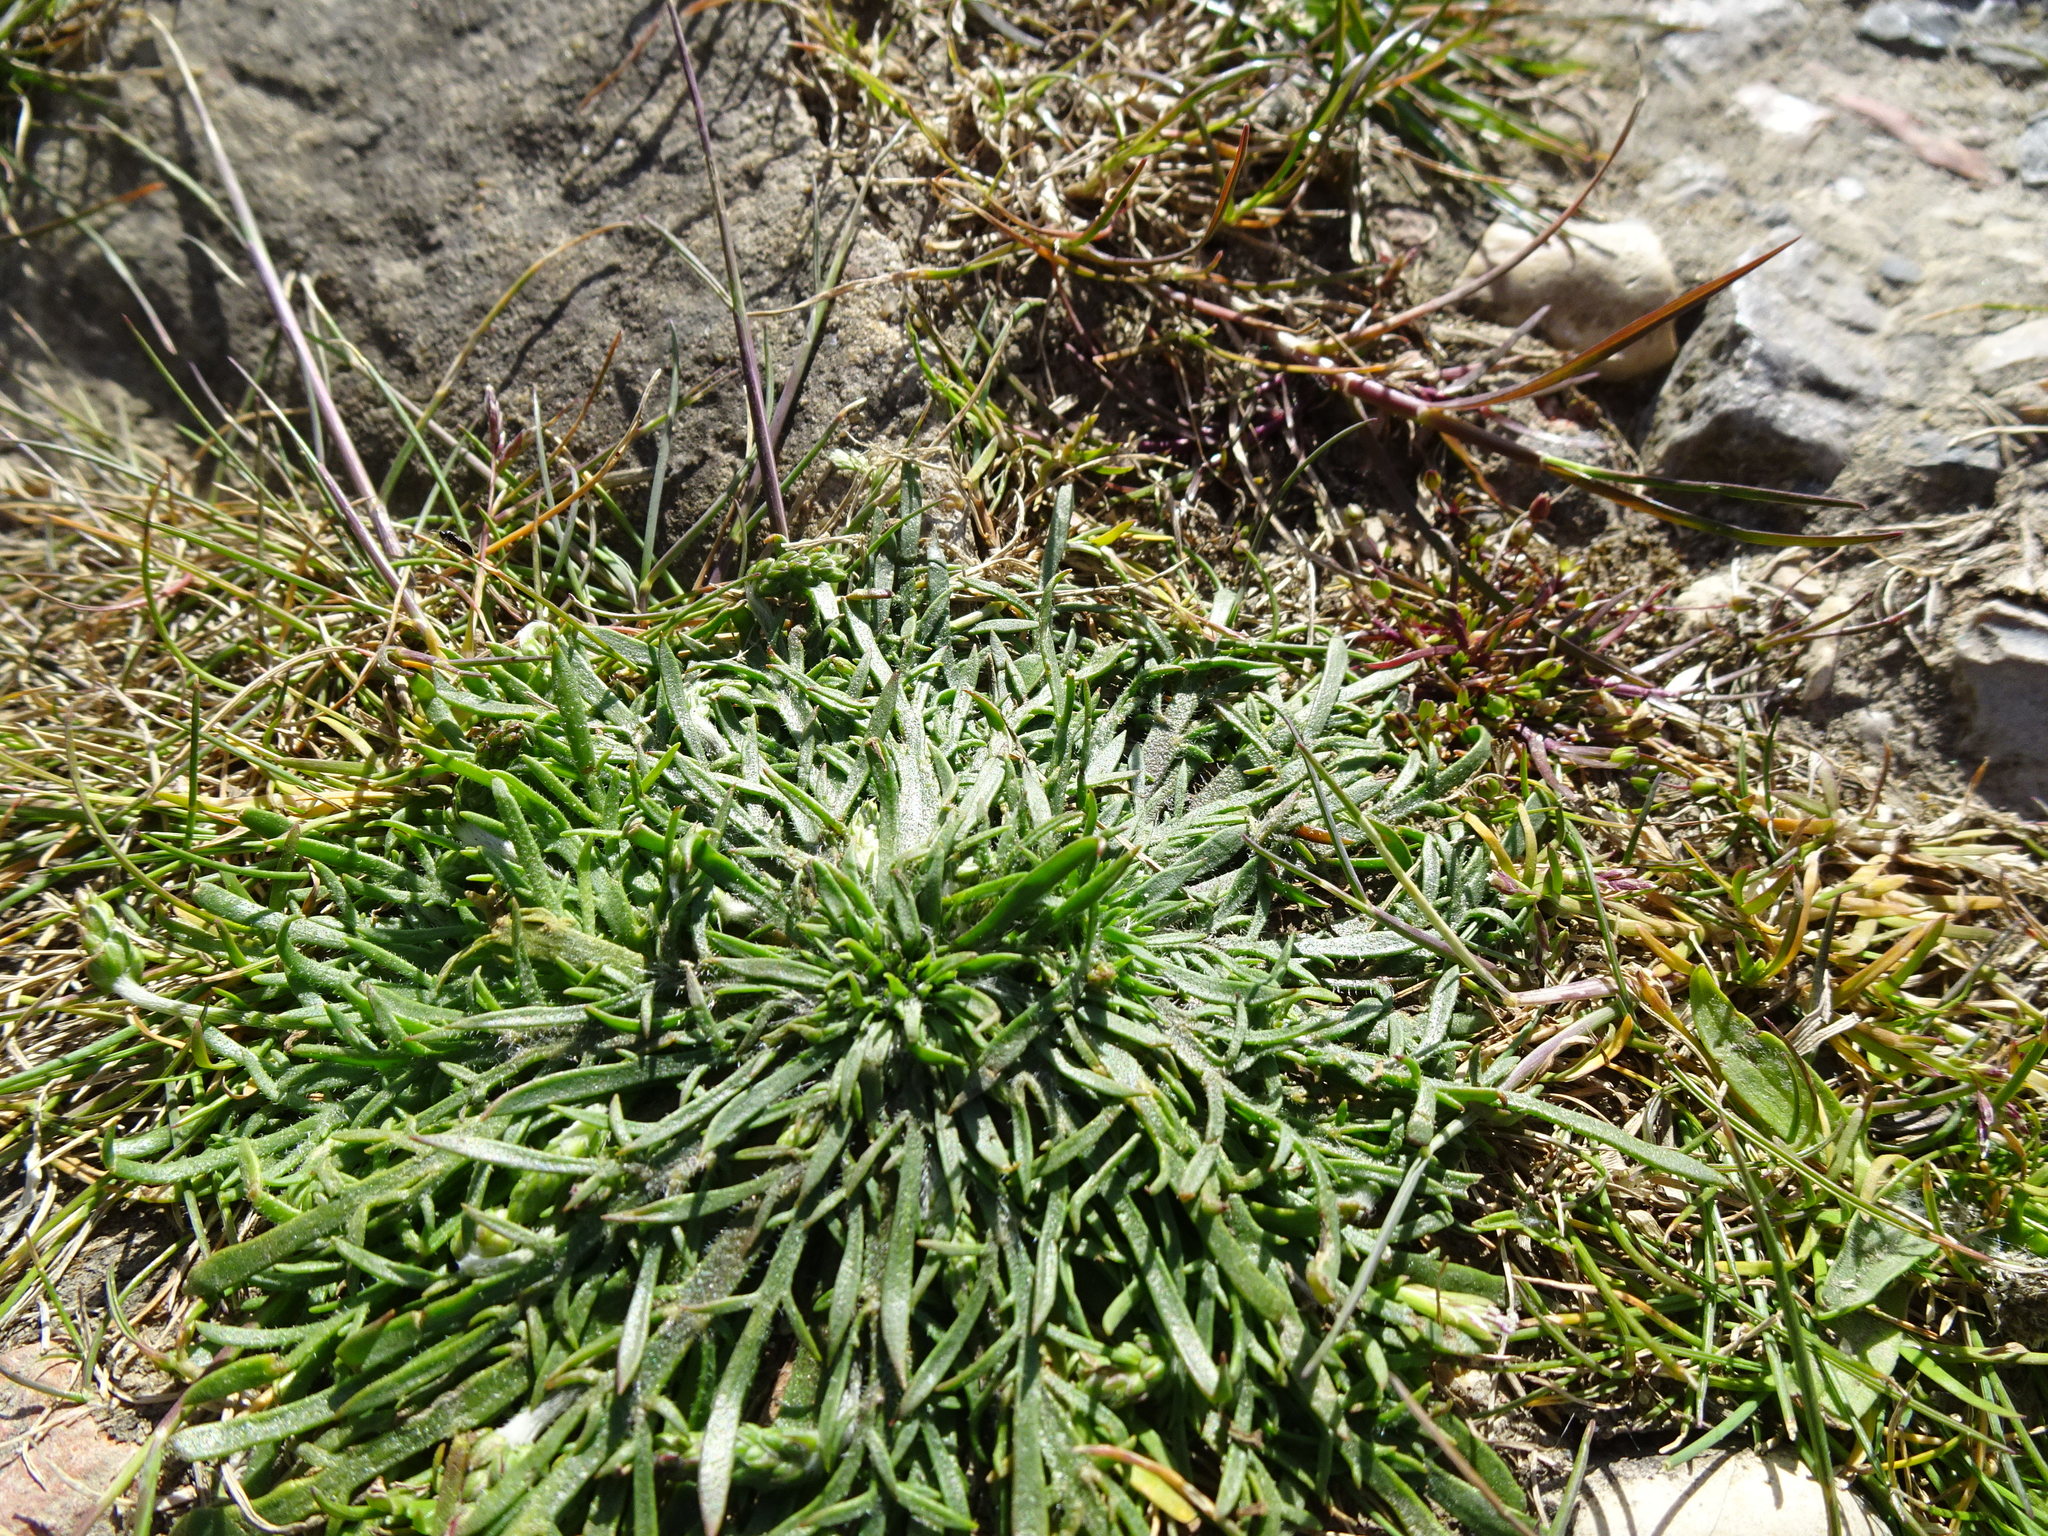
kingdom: Plantae
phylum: Tracheophyta
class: Magnoliopsida
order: Lamiales
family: Plantaginaceae
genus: Plantago
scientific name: Plantago coronopus
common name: Buck's-horn plantain
